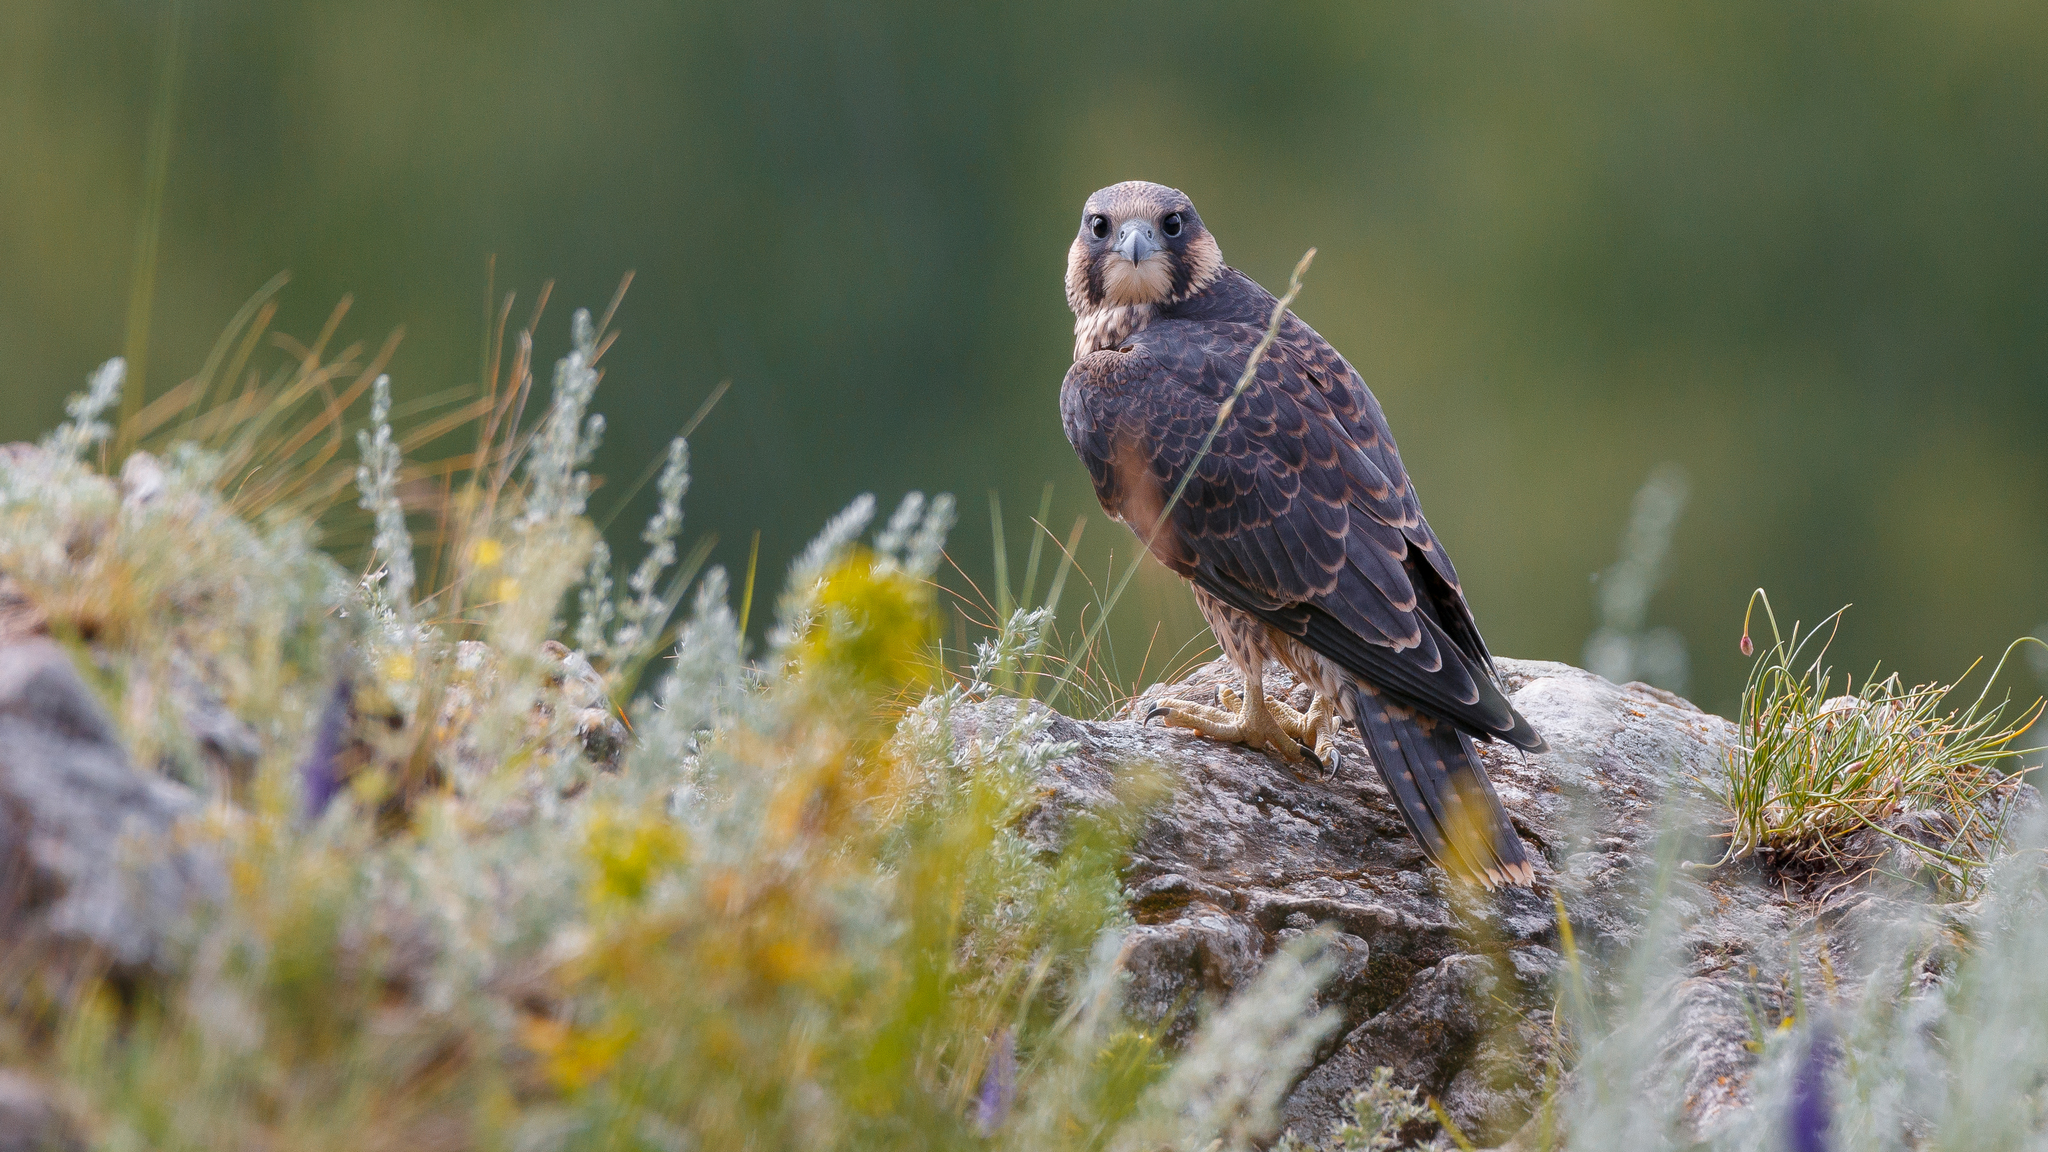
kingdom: Animalia
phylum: Chordata
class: Aves
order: Falconiformes
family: Falconidae
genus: Falco
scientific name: Falco peregrinus
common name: Peregrine falcon
